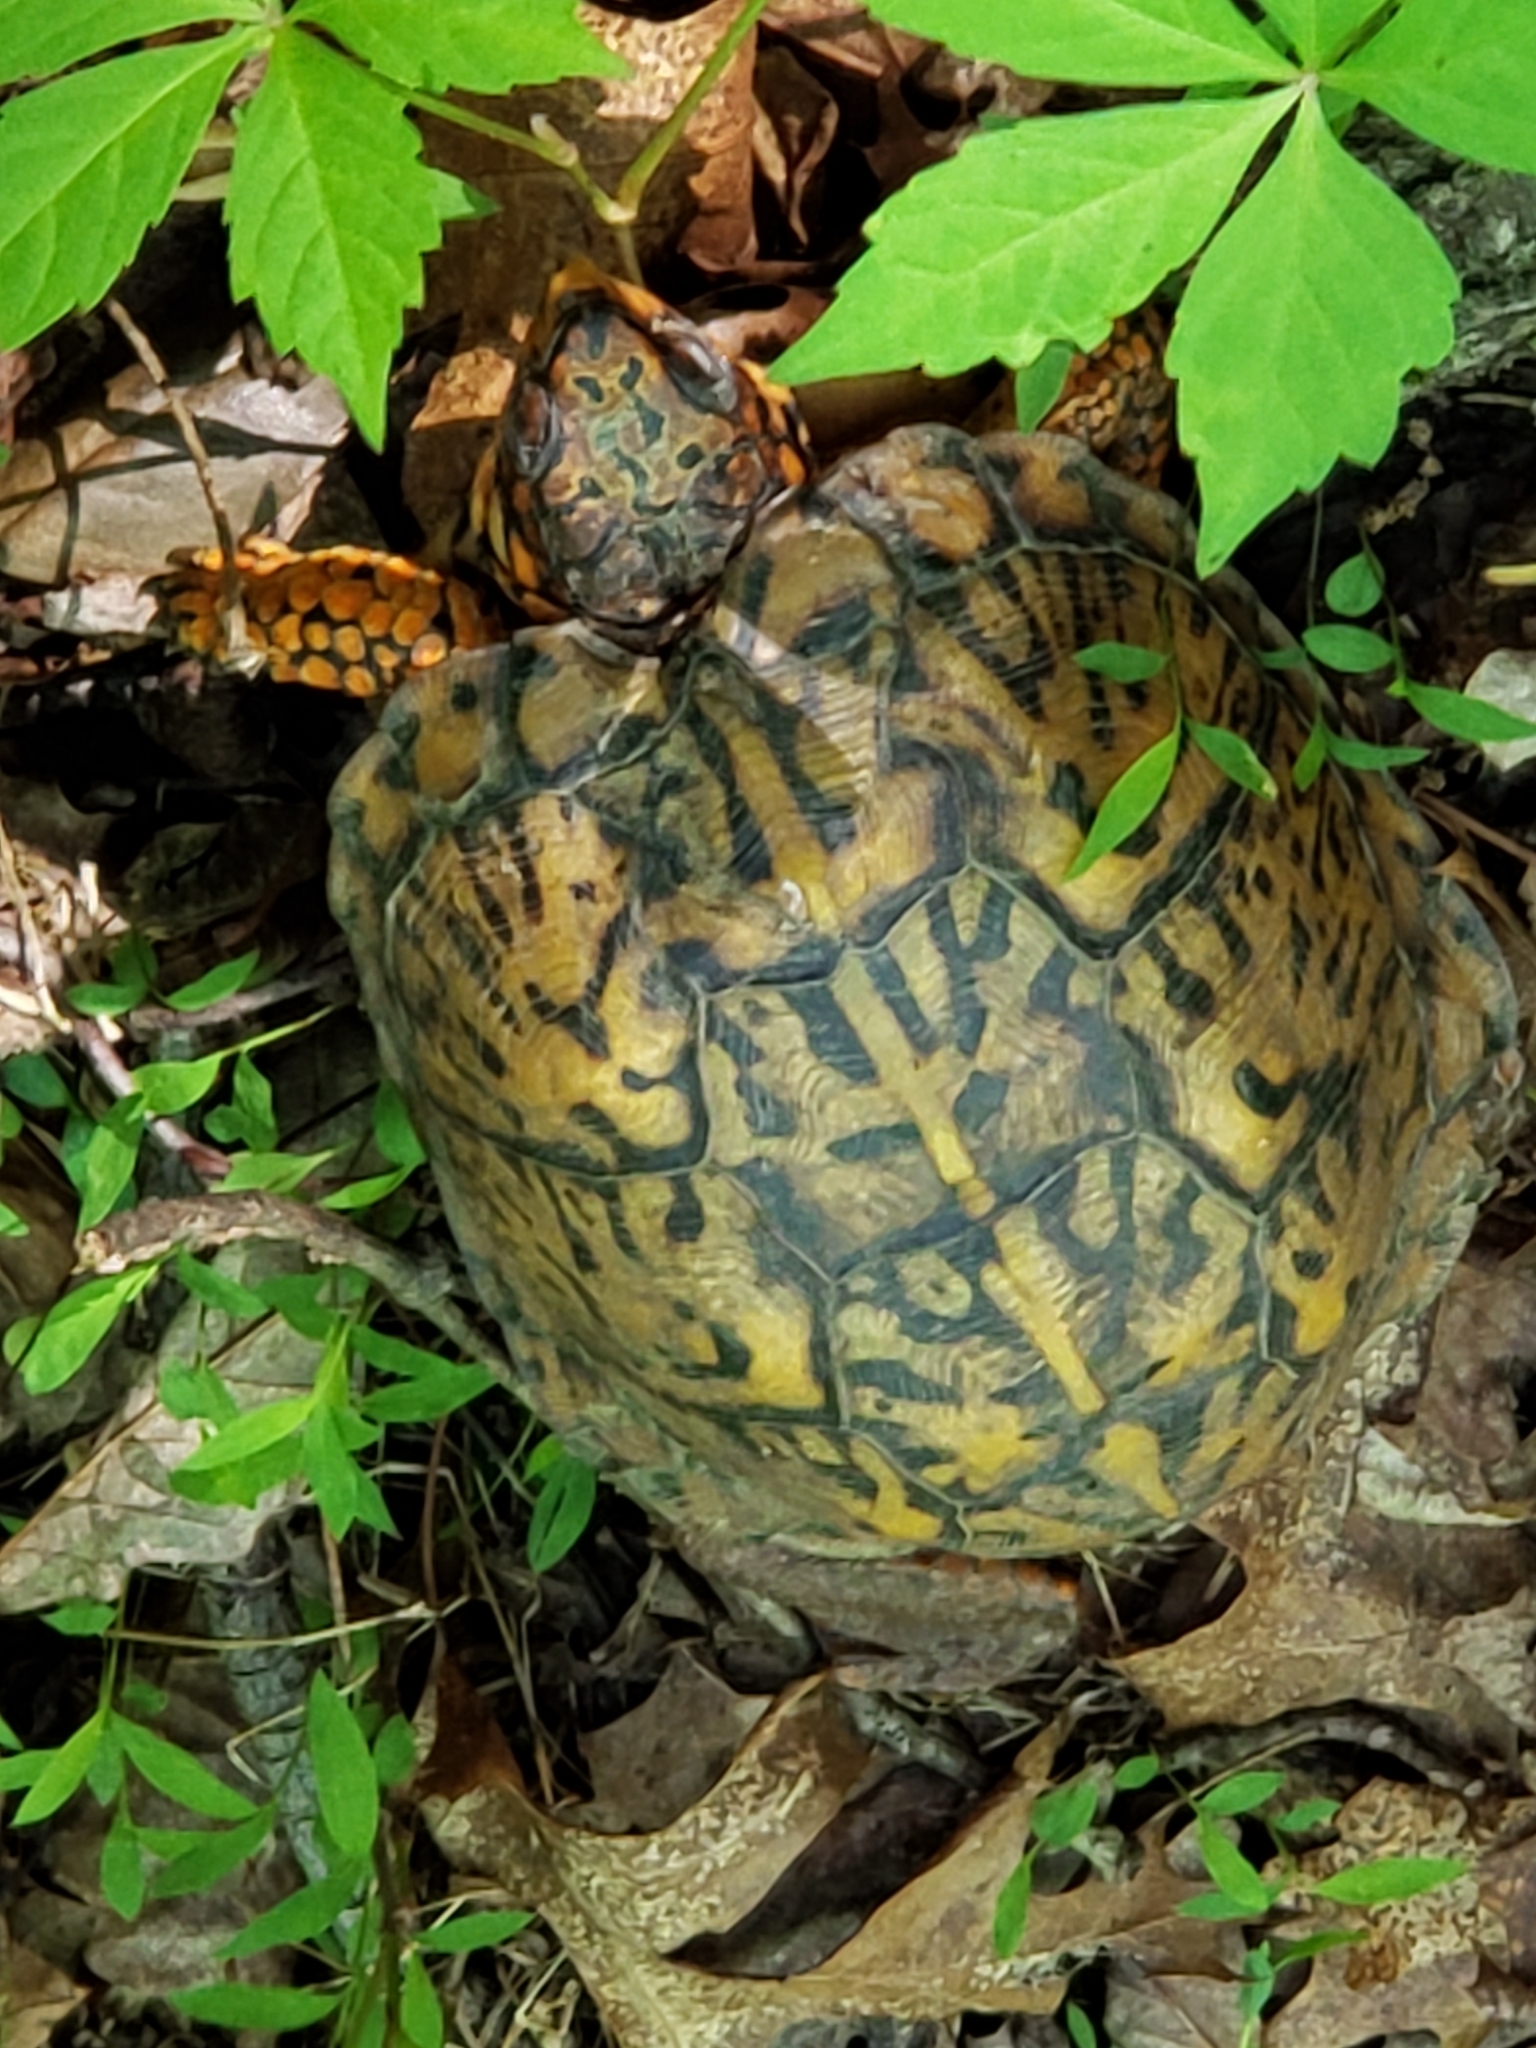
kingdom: Animalia
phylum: Chordata
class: Testudines
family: Emydidae
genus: Terrapene
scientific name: Terrapene carolina
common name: Common box turtle
